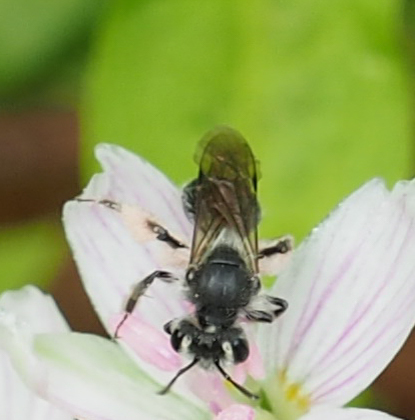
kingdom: Animalia
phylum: Arthropoda
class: Insecta
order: Hymenoptera
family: Andrenidae
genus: Andrena
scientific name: Andrena erigeniae
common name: Spring beauty miner
